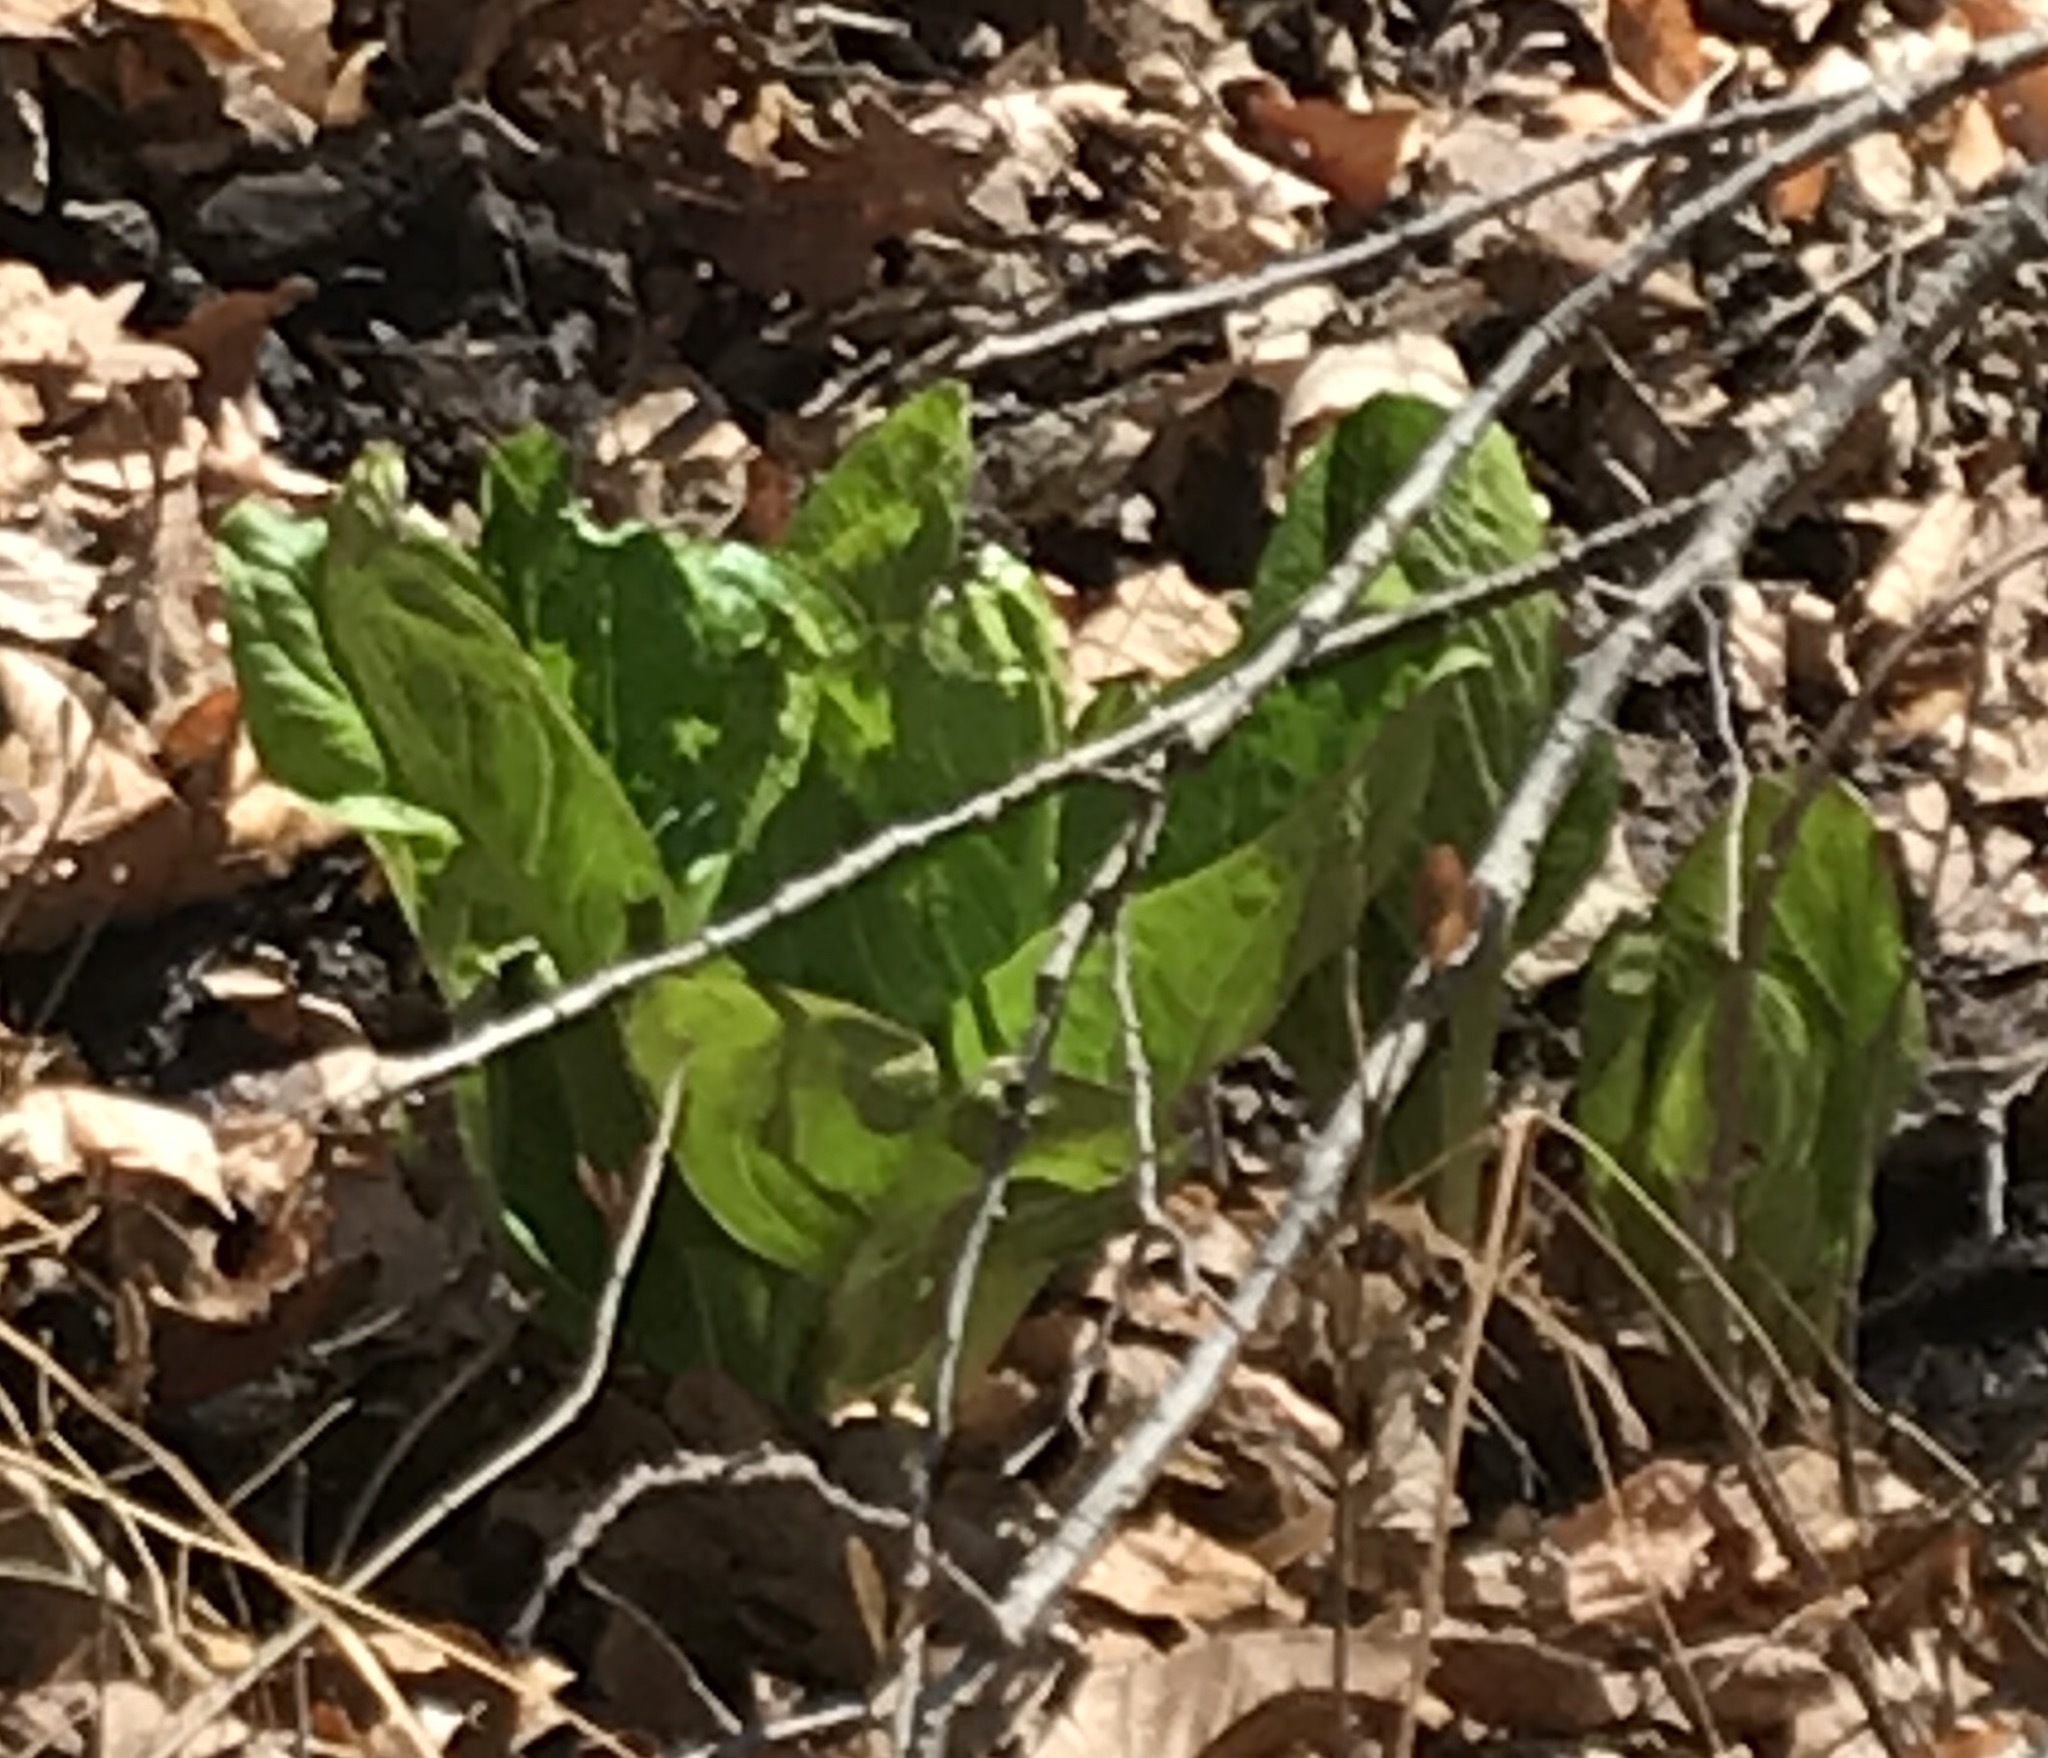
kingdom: Plantae
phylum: Tracheophyta
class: Liliopsida
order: Alismatales
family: Araceae
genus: Symplocarpus
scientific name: Symplocarpus foetidus
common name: Eastern skunk cabbage
